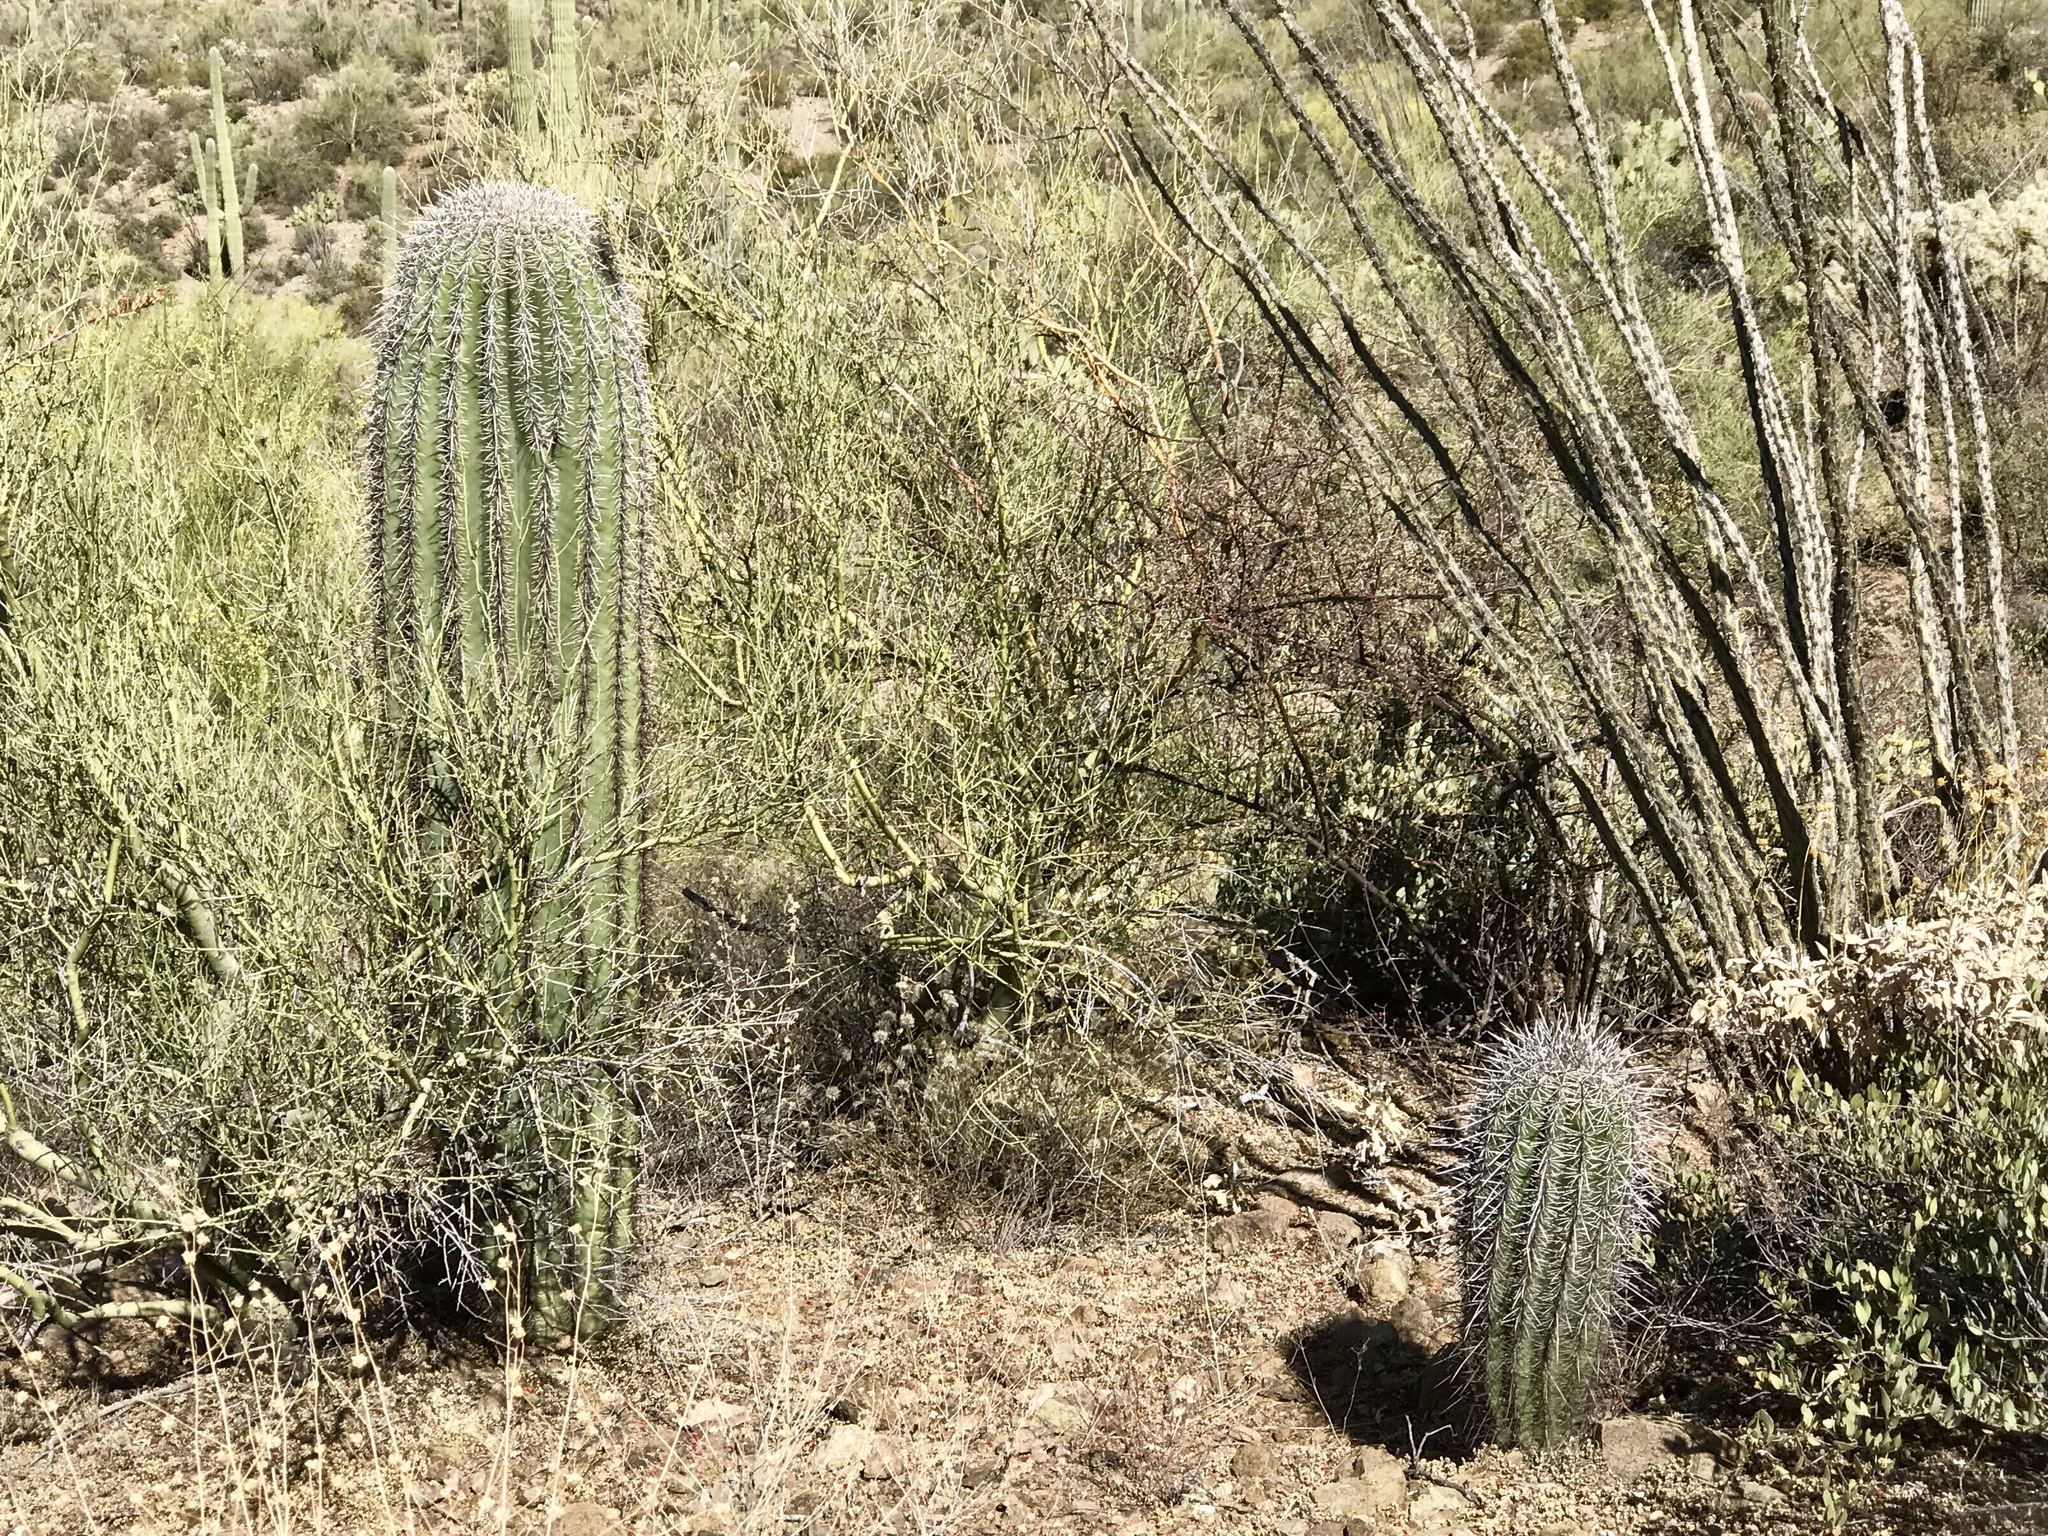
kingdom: Plantae
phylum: Tracheophyta
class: Magnoliopsida
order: Caryophyllales
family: Cactaceae
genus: Carnegiea
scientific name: Carnegiea gigantea
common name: Saguaro
